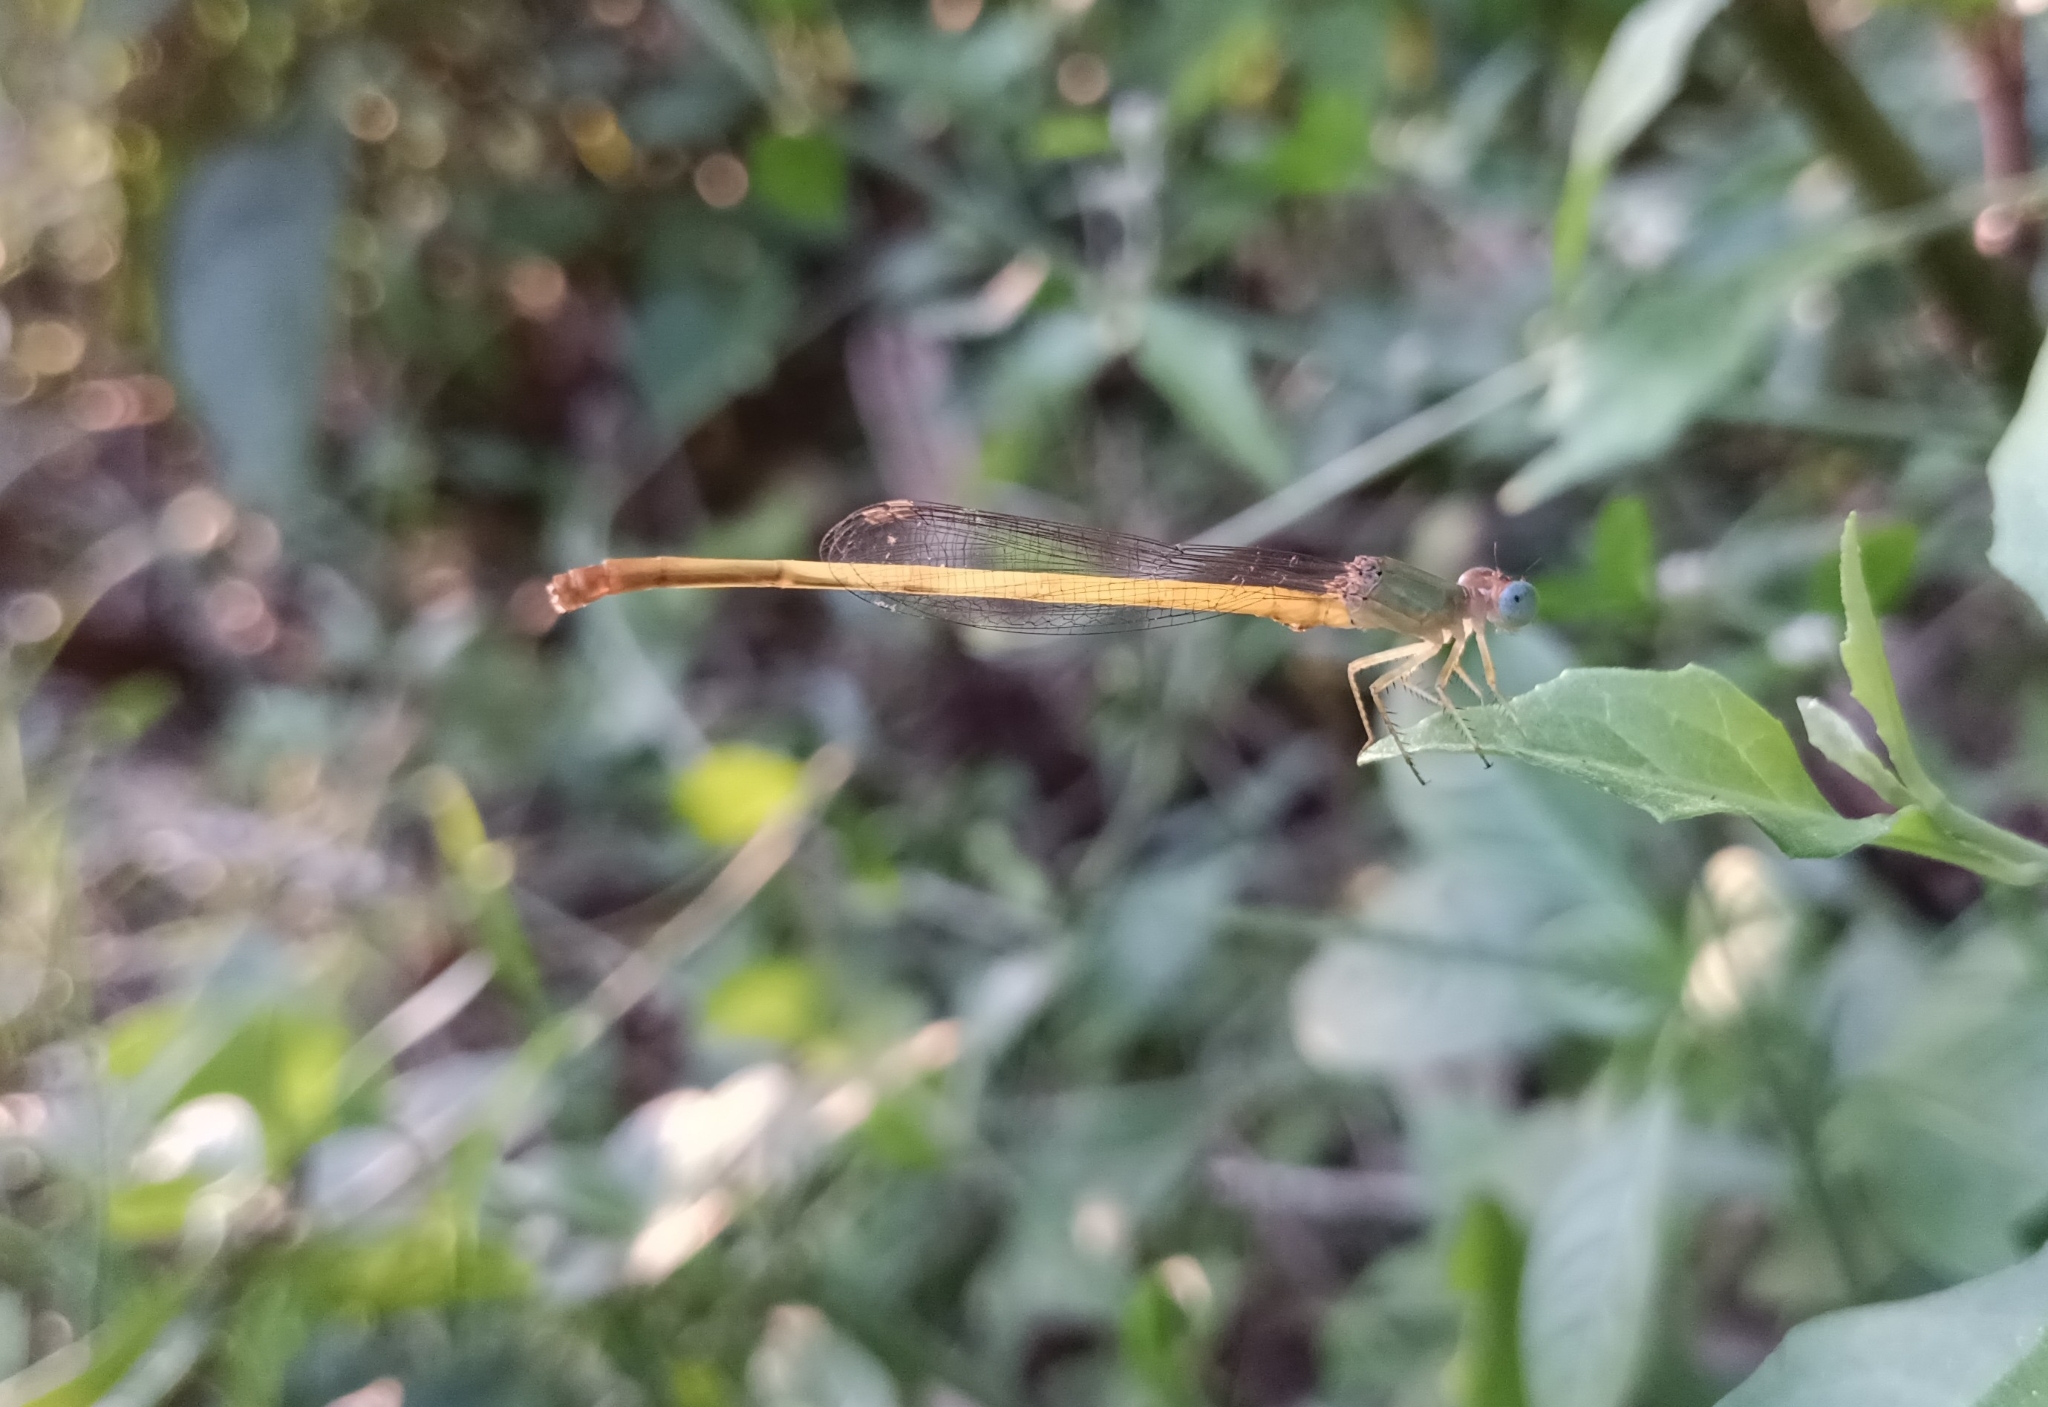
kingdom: Animalia
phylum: Arthropoda
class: Insecta
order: Odonata
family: Coenagrionidae
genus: Ceriagrion
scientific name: Ceriagrion coromandelianum
